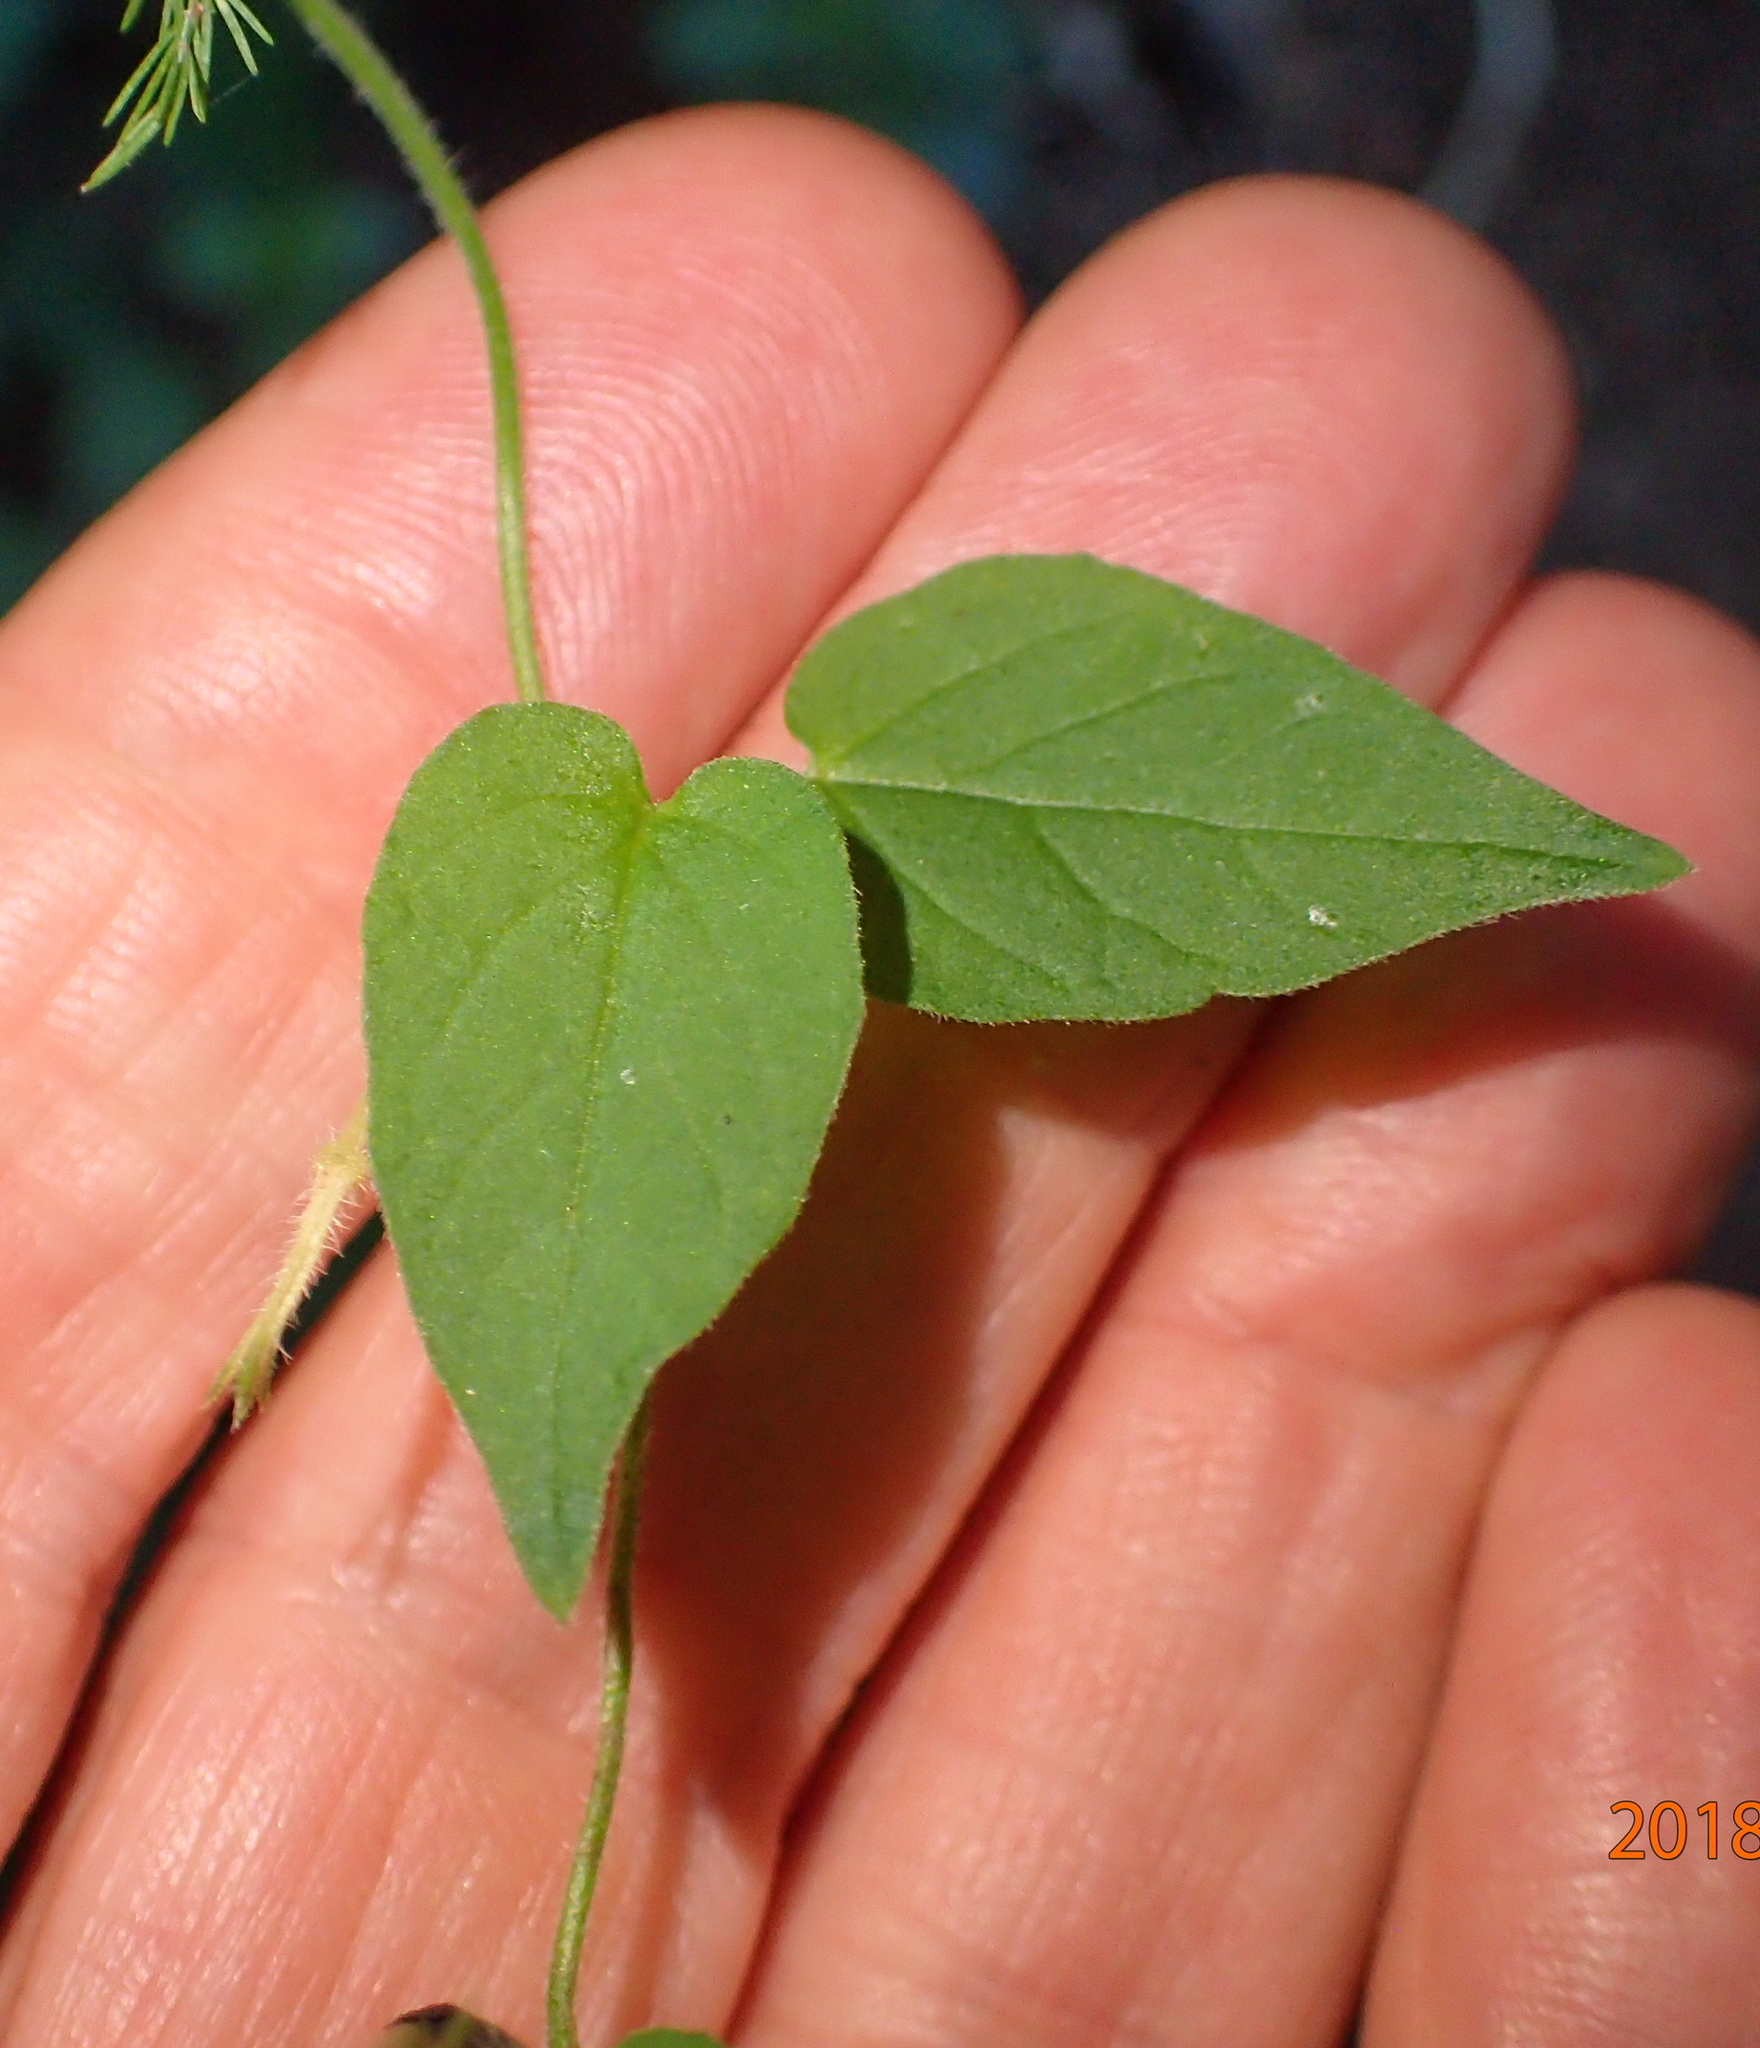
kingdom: Plantae
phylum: Tracheophyta
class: Magnoliopsida
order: Gentianales
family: Apocynaceae
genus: Ceropegia
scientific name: Ceropegia meyeri
